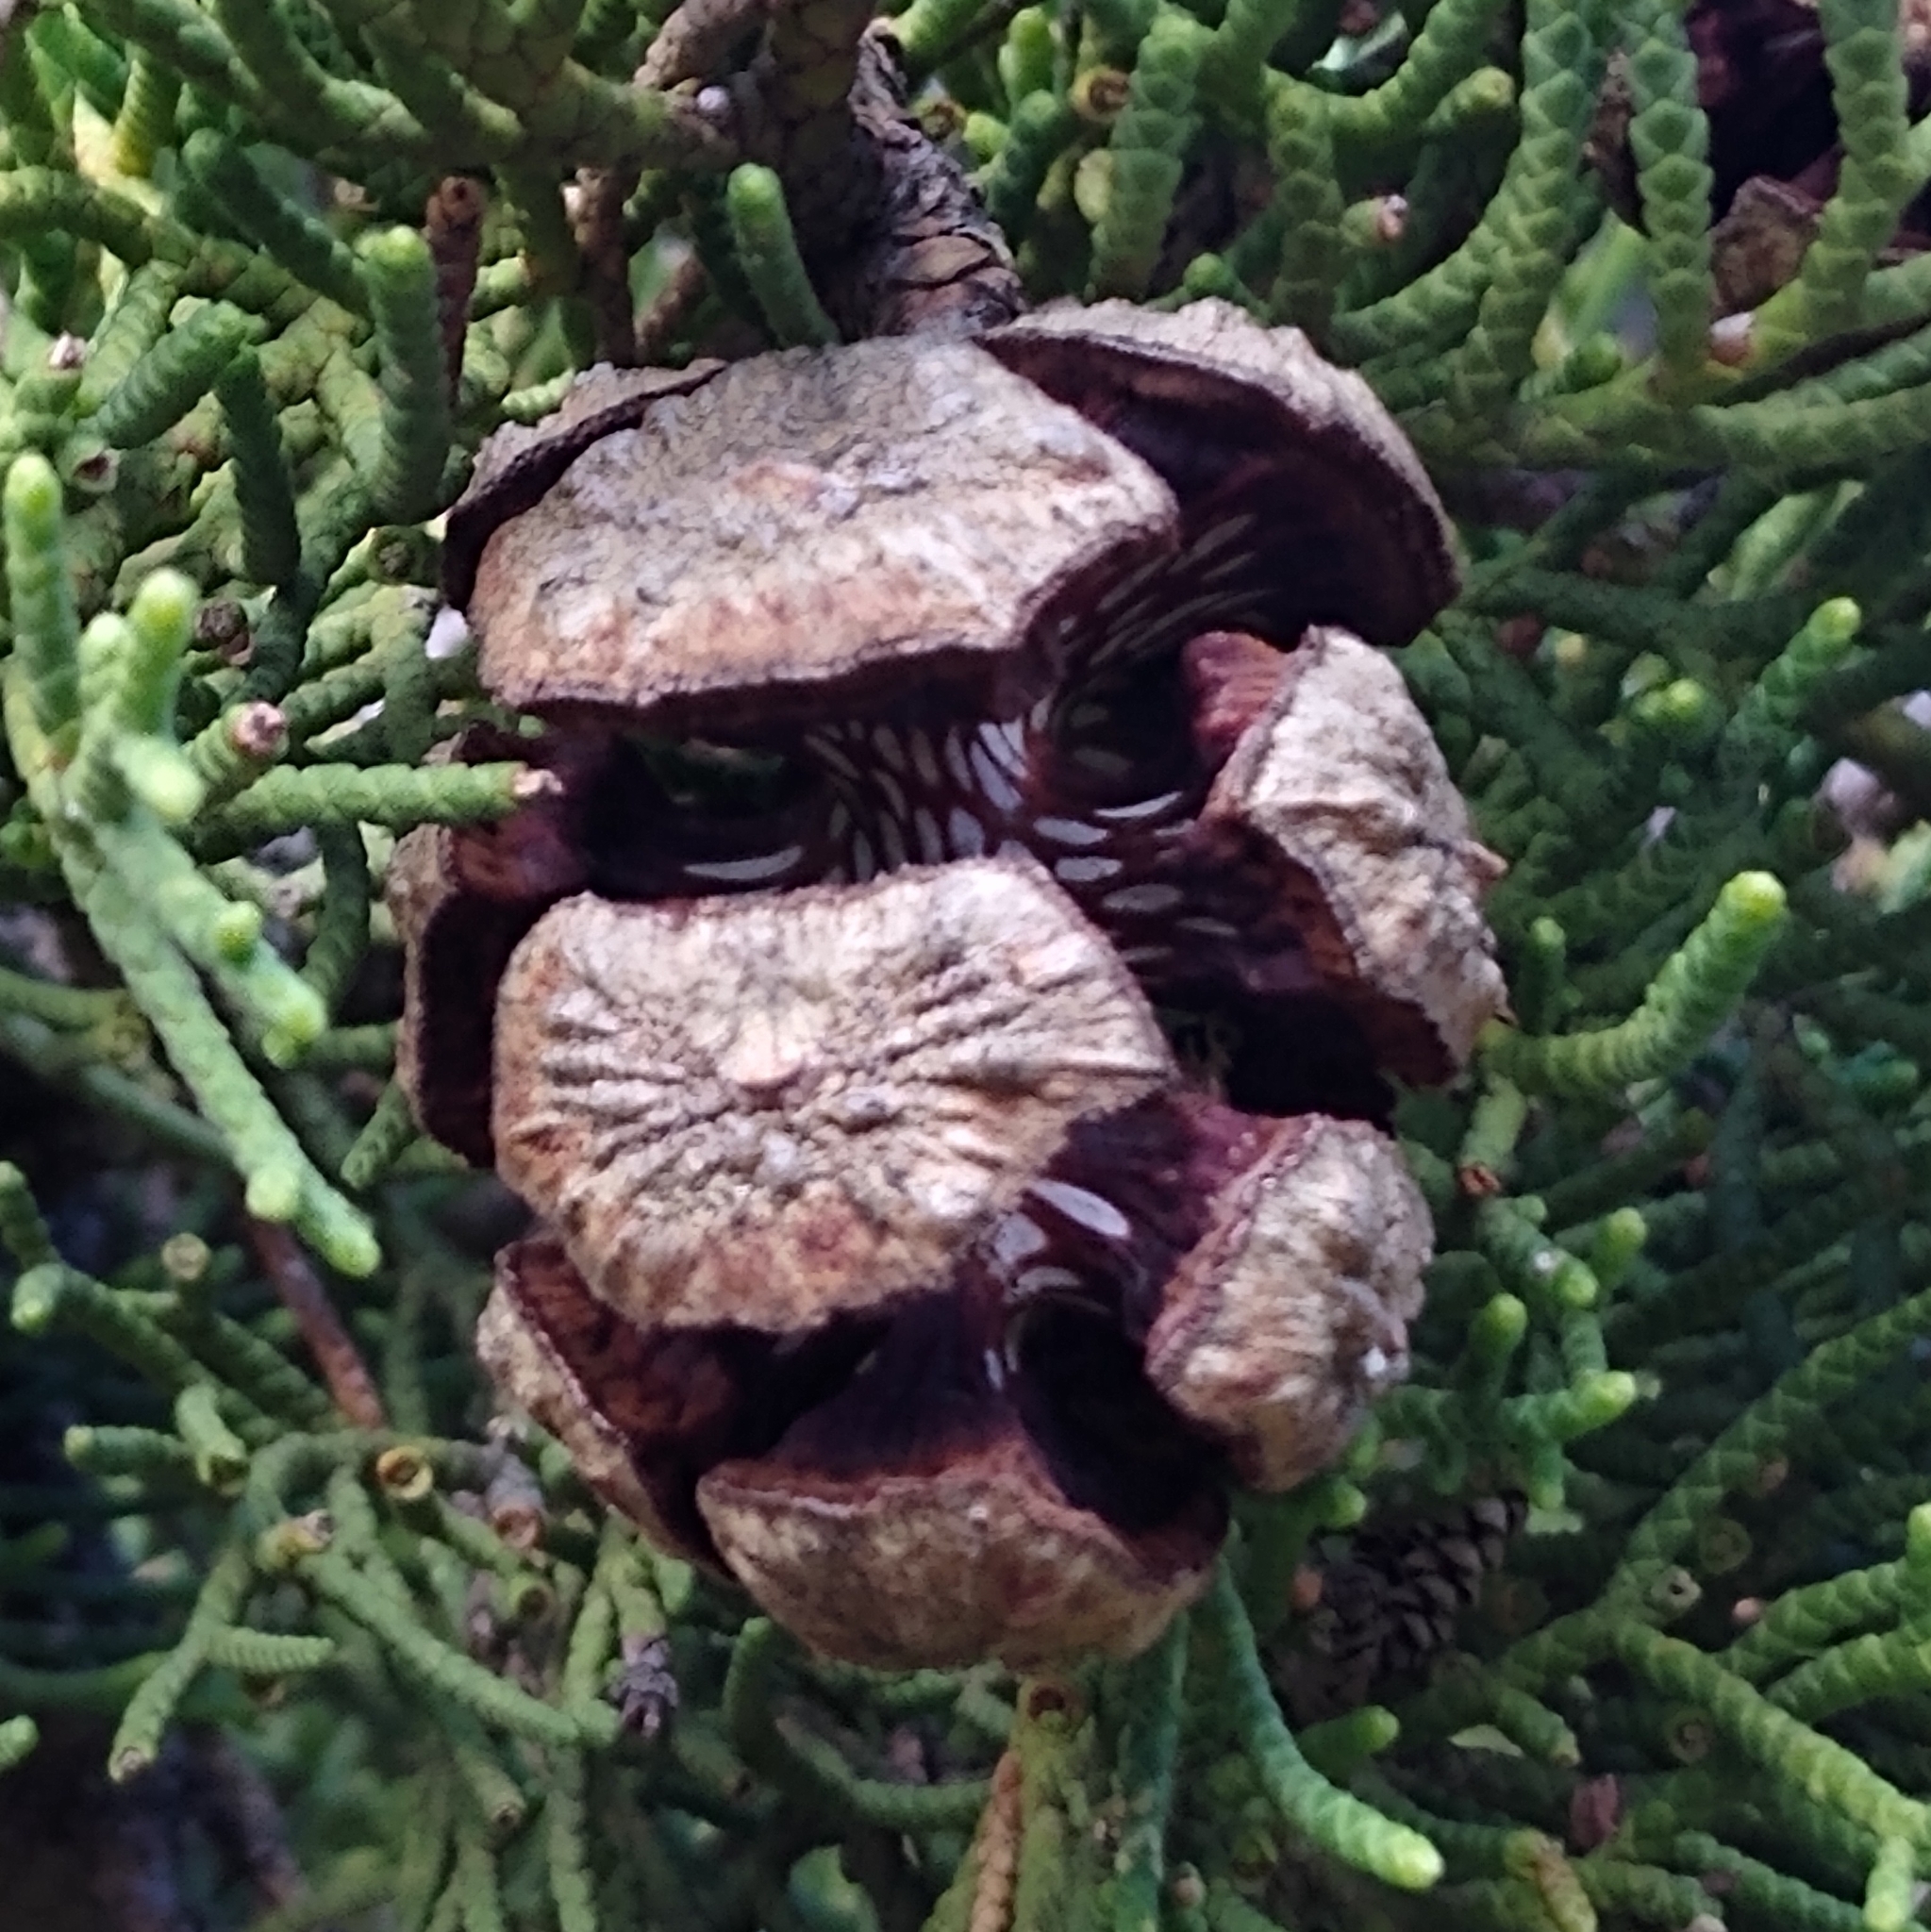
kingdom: Plantae
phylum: Tracheophyta
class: Pinopsida
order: Pinales
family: Cupressaceae
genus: Cupressus
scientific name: Cupressus sempervirens
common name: Italian cypress
